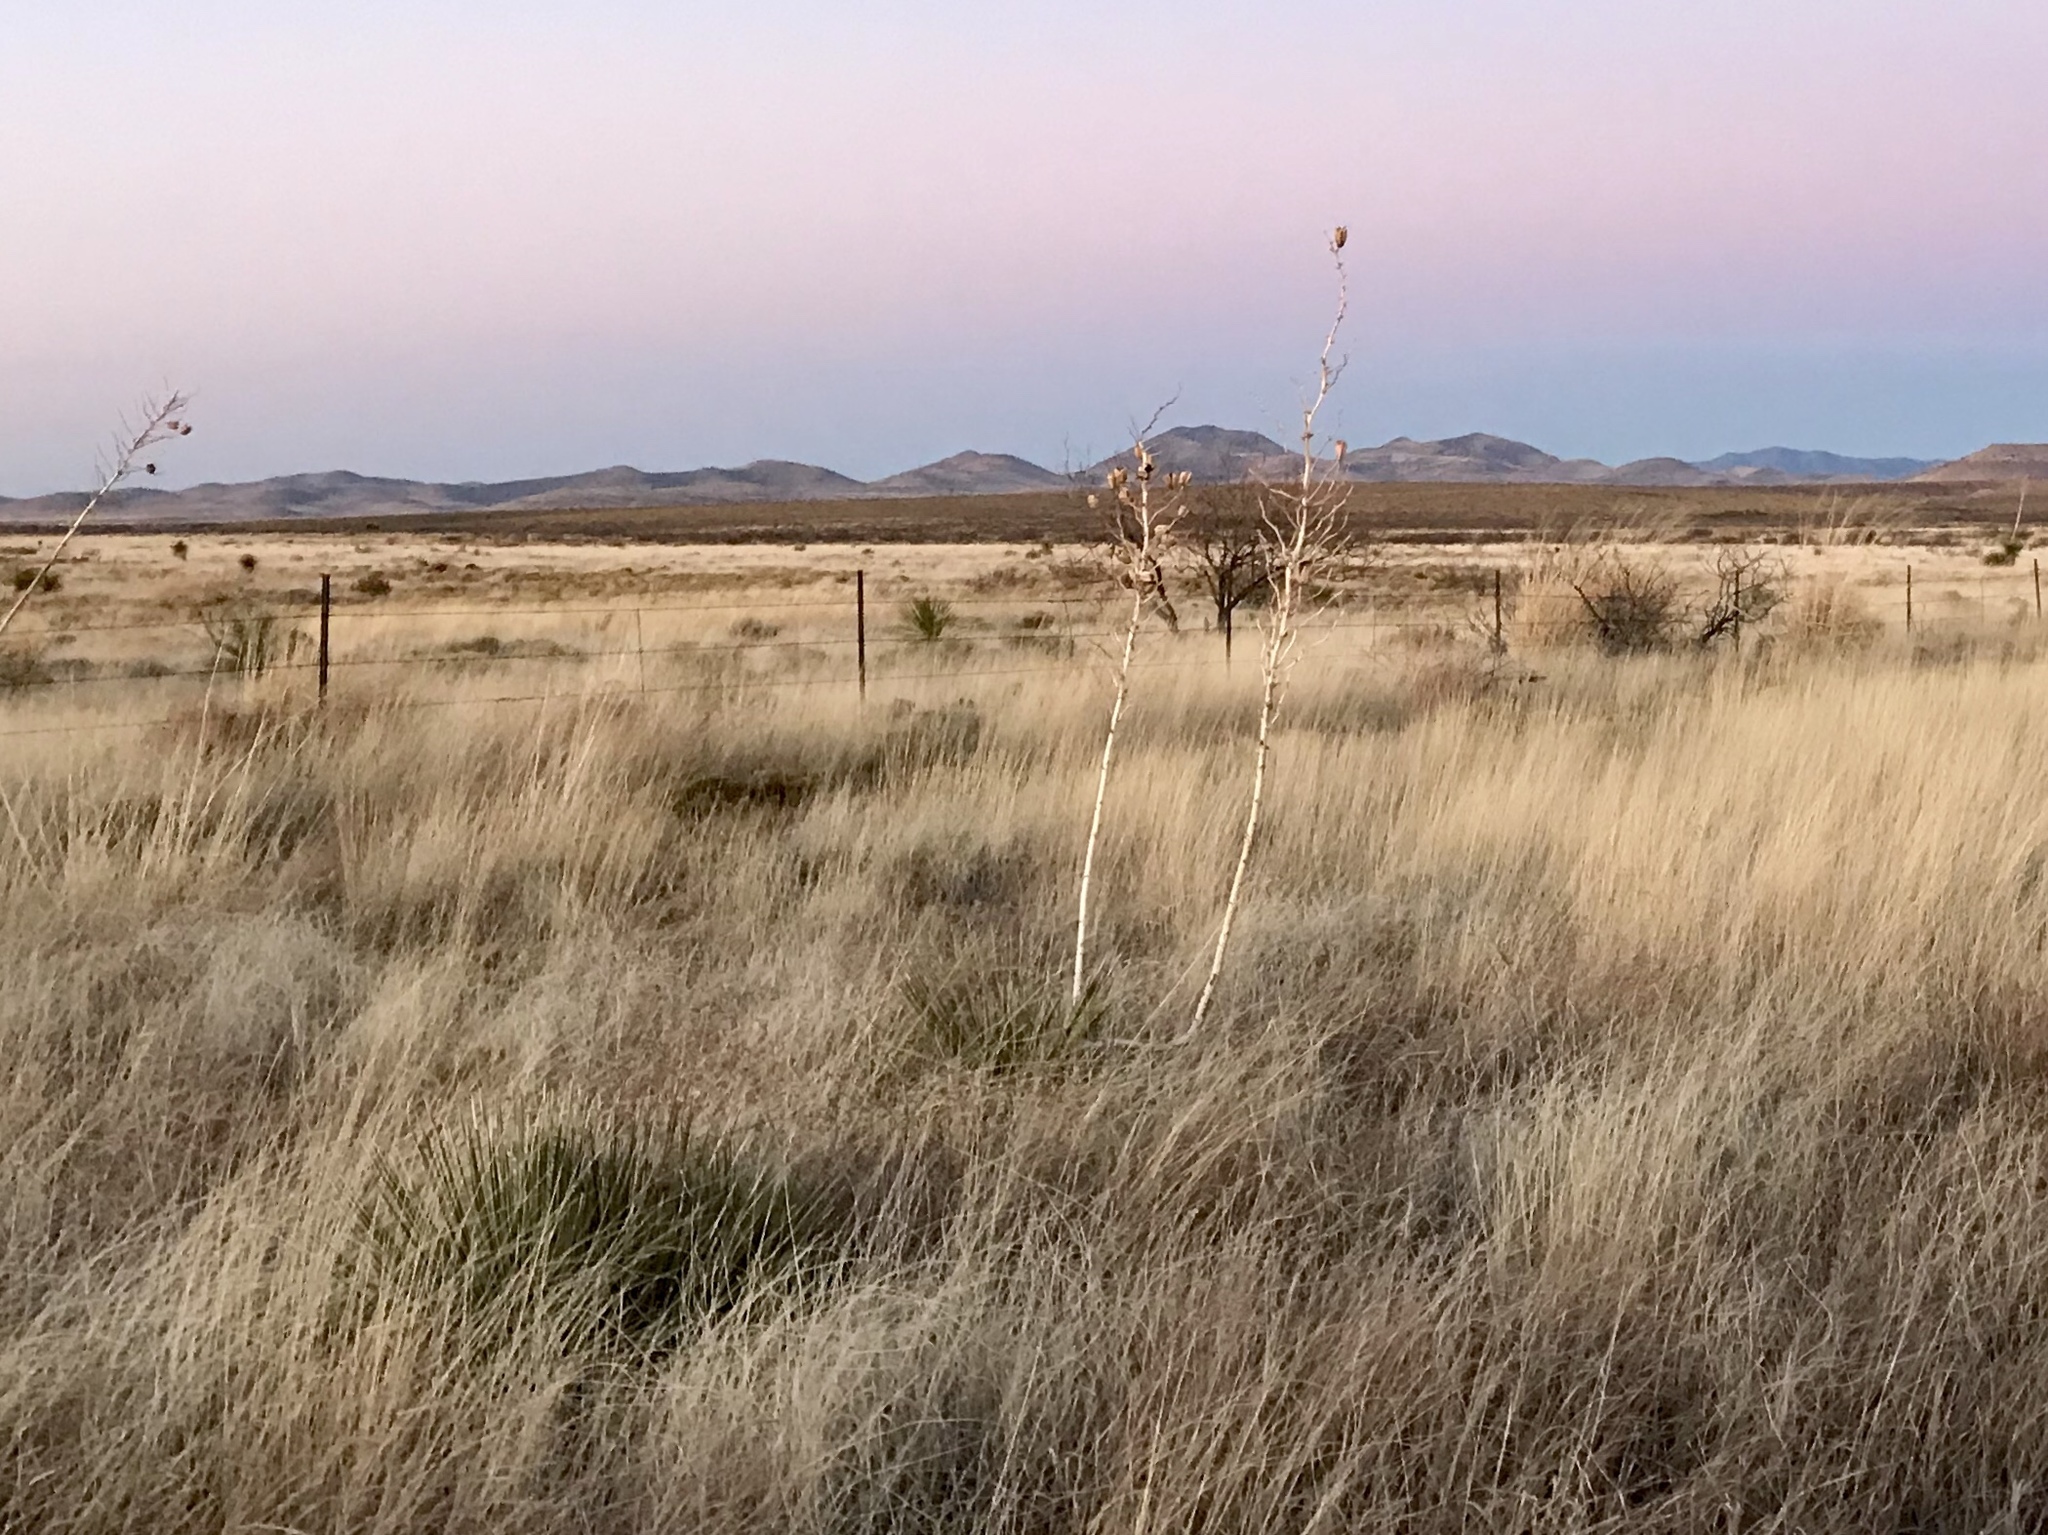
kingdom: Plantae
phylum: Tracheophyta
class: Liliopsida
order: Asparagales
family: Asparagaceae
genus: Yucca
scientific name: Yucca elata
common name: Palmella
